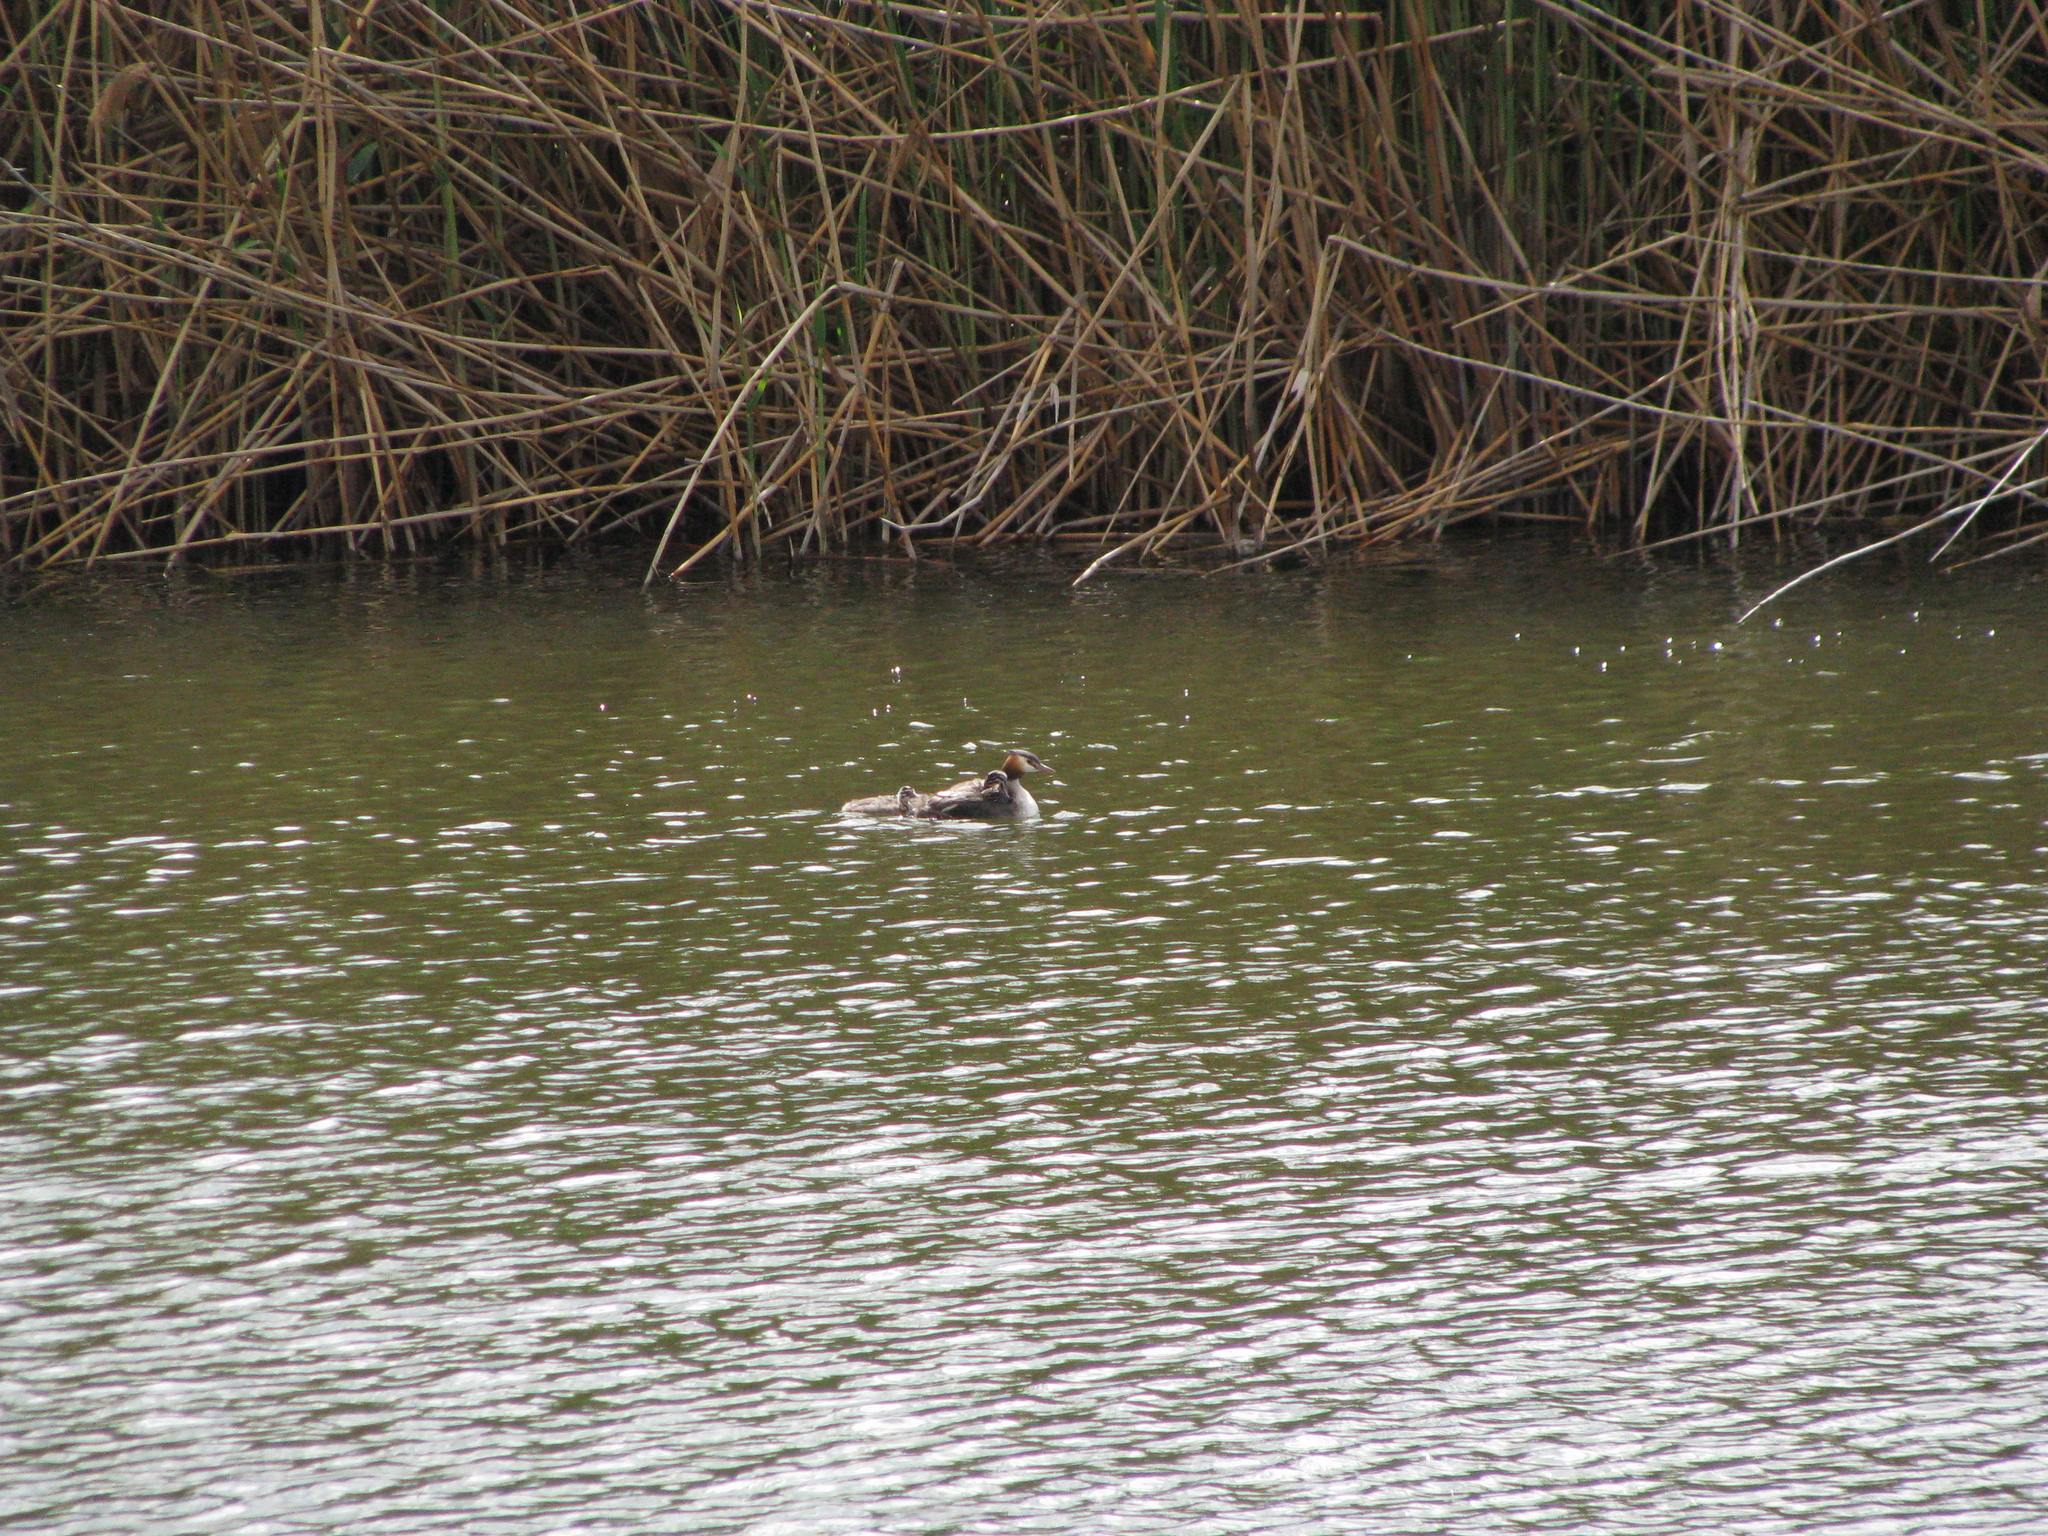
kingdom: Animalia
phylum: Chordata
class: Aves
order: Podicipediformes
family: Podicipedidae
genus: Podiceps
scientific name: Podiceps cristatus
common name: Great crested grebe
